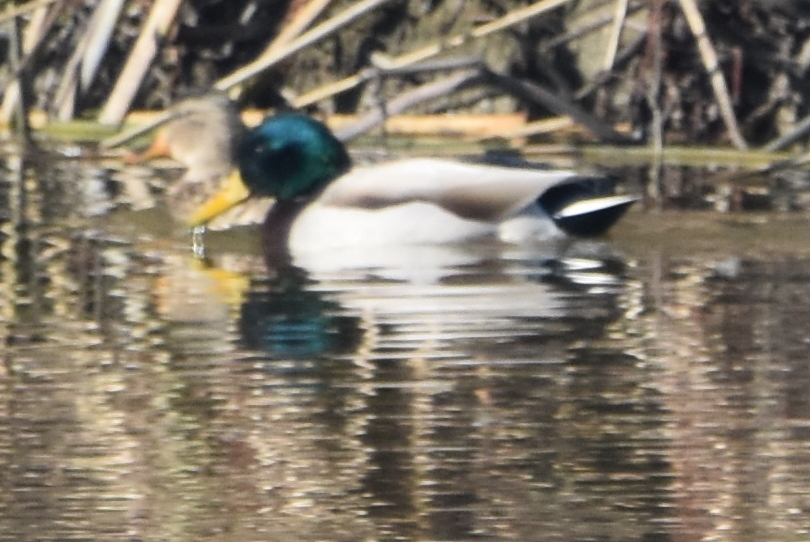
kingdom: Animalia
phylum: Chordata
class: Aves
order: Anseriformes
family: Anatidae
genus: Anas
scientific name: Anas platyrhynchos
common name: Mallard
